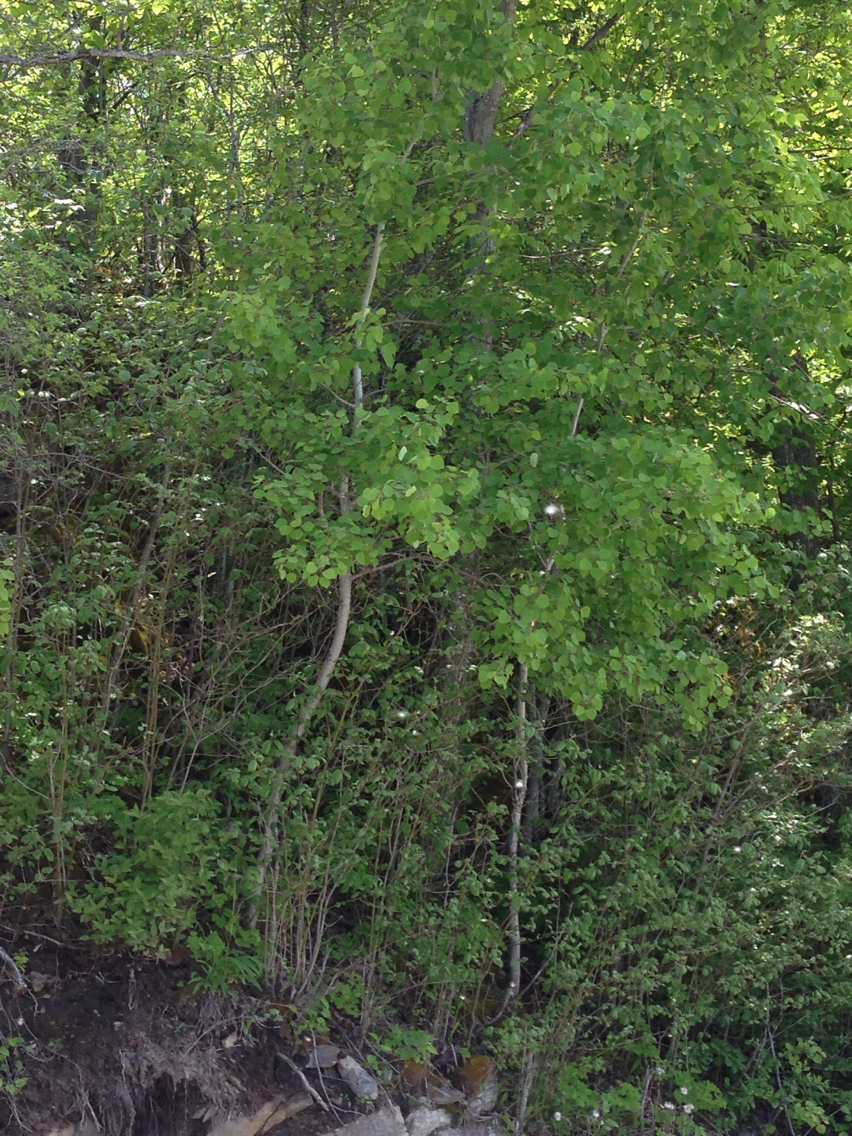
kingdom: Plantae
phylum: Tracheophyta
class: Magnoliopsida
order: Malpighiales
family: Salicaceae
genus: Populus
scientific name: Populus tremuloides
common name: Quaking aspen
